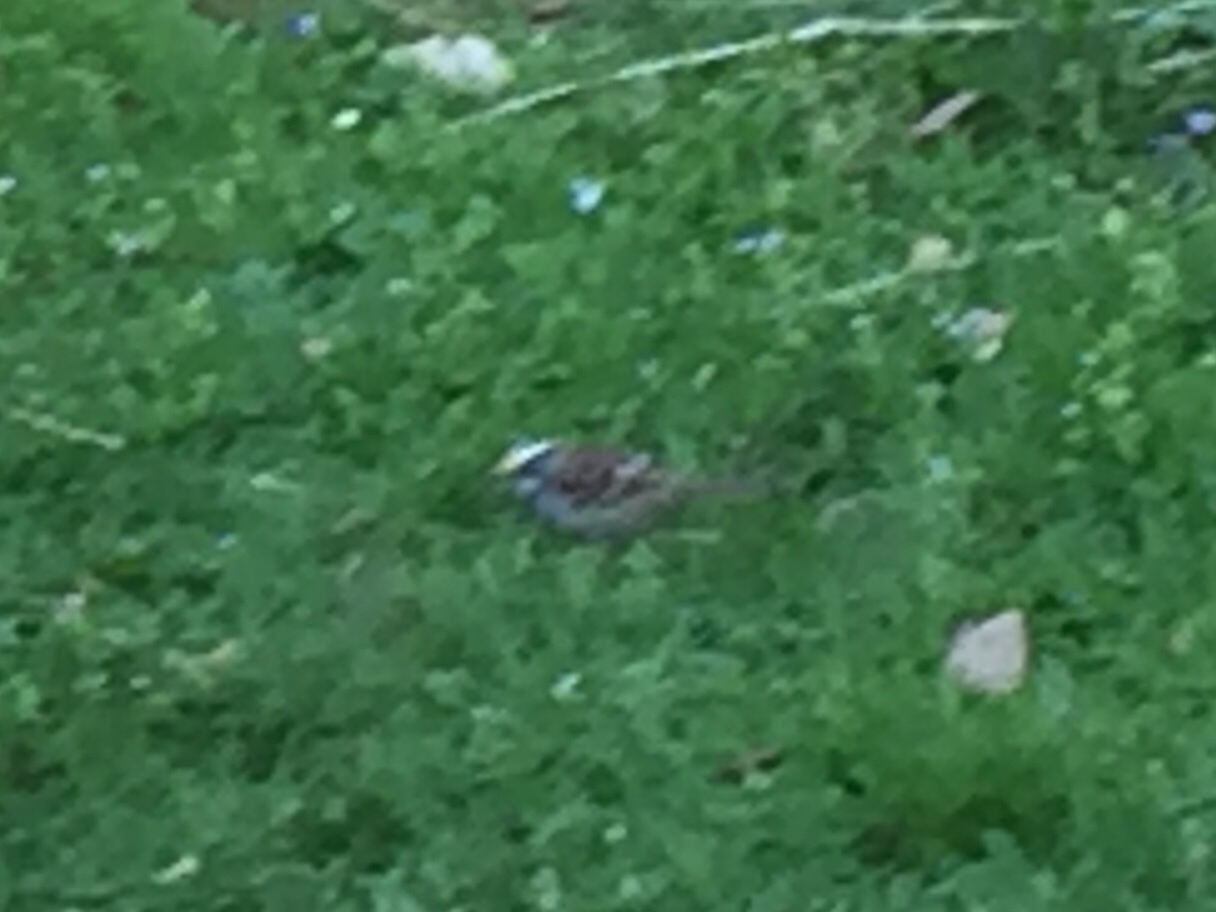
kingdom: Animalia
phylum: Chordata
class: Aves
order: Passeriformes
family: Passerellidae
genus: Zonotrichia
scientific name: Zonotrichia albicollis
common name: White-throated sparrow
